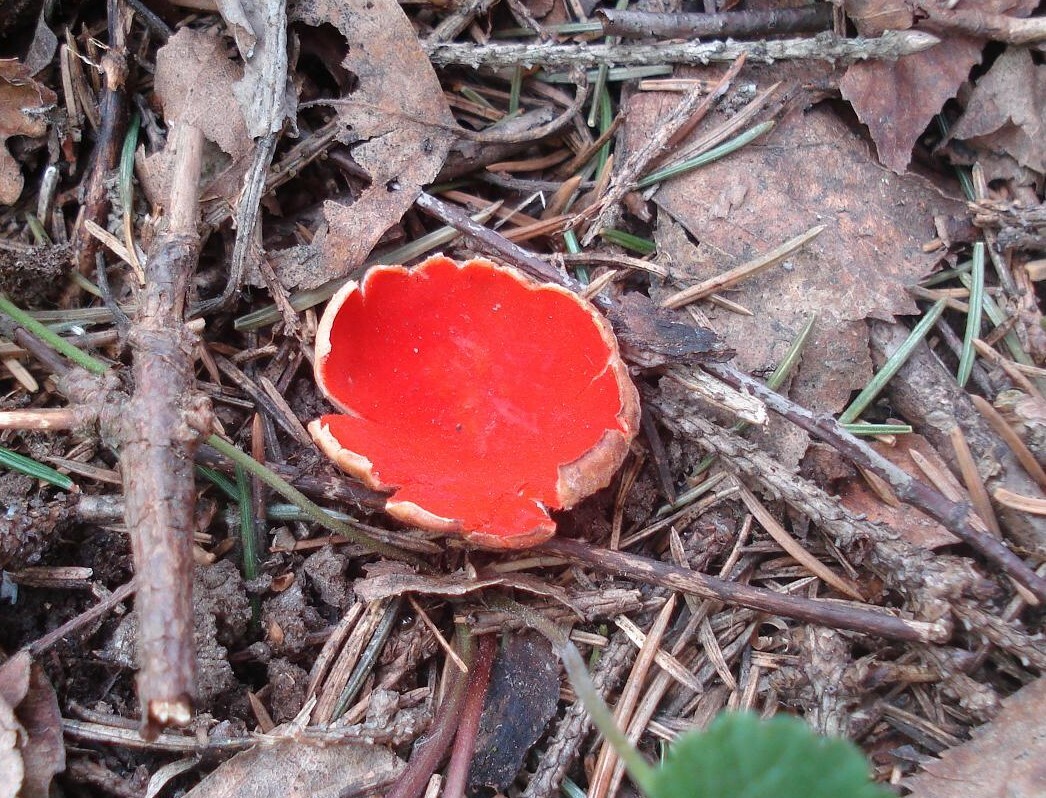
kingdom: Fungi
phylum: Ascomycota
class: Pezizomycetes
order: Pezizales
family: Sarcoscyphaceae
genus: Sarcoscypha
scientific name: Sarcoscypha
